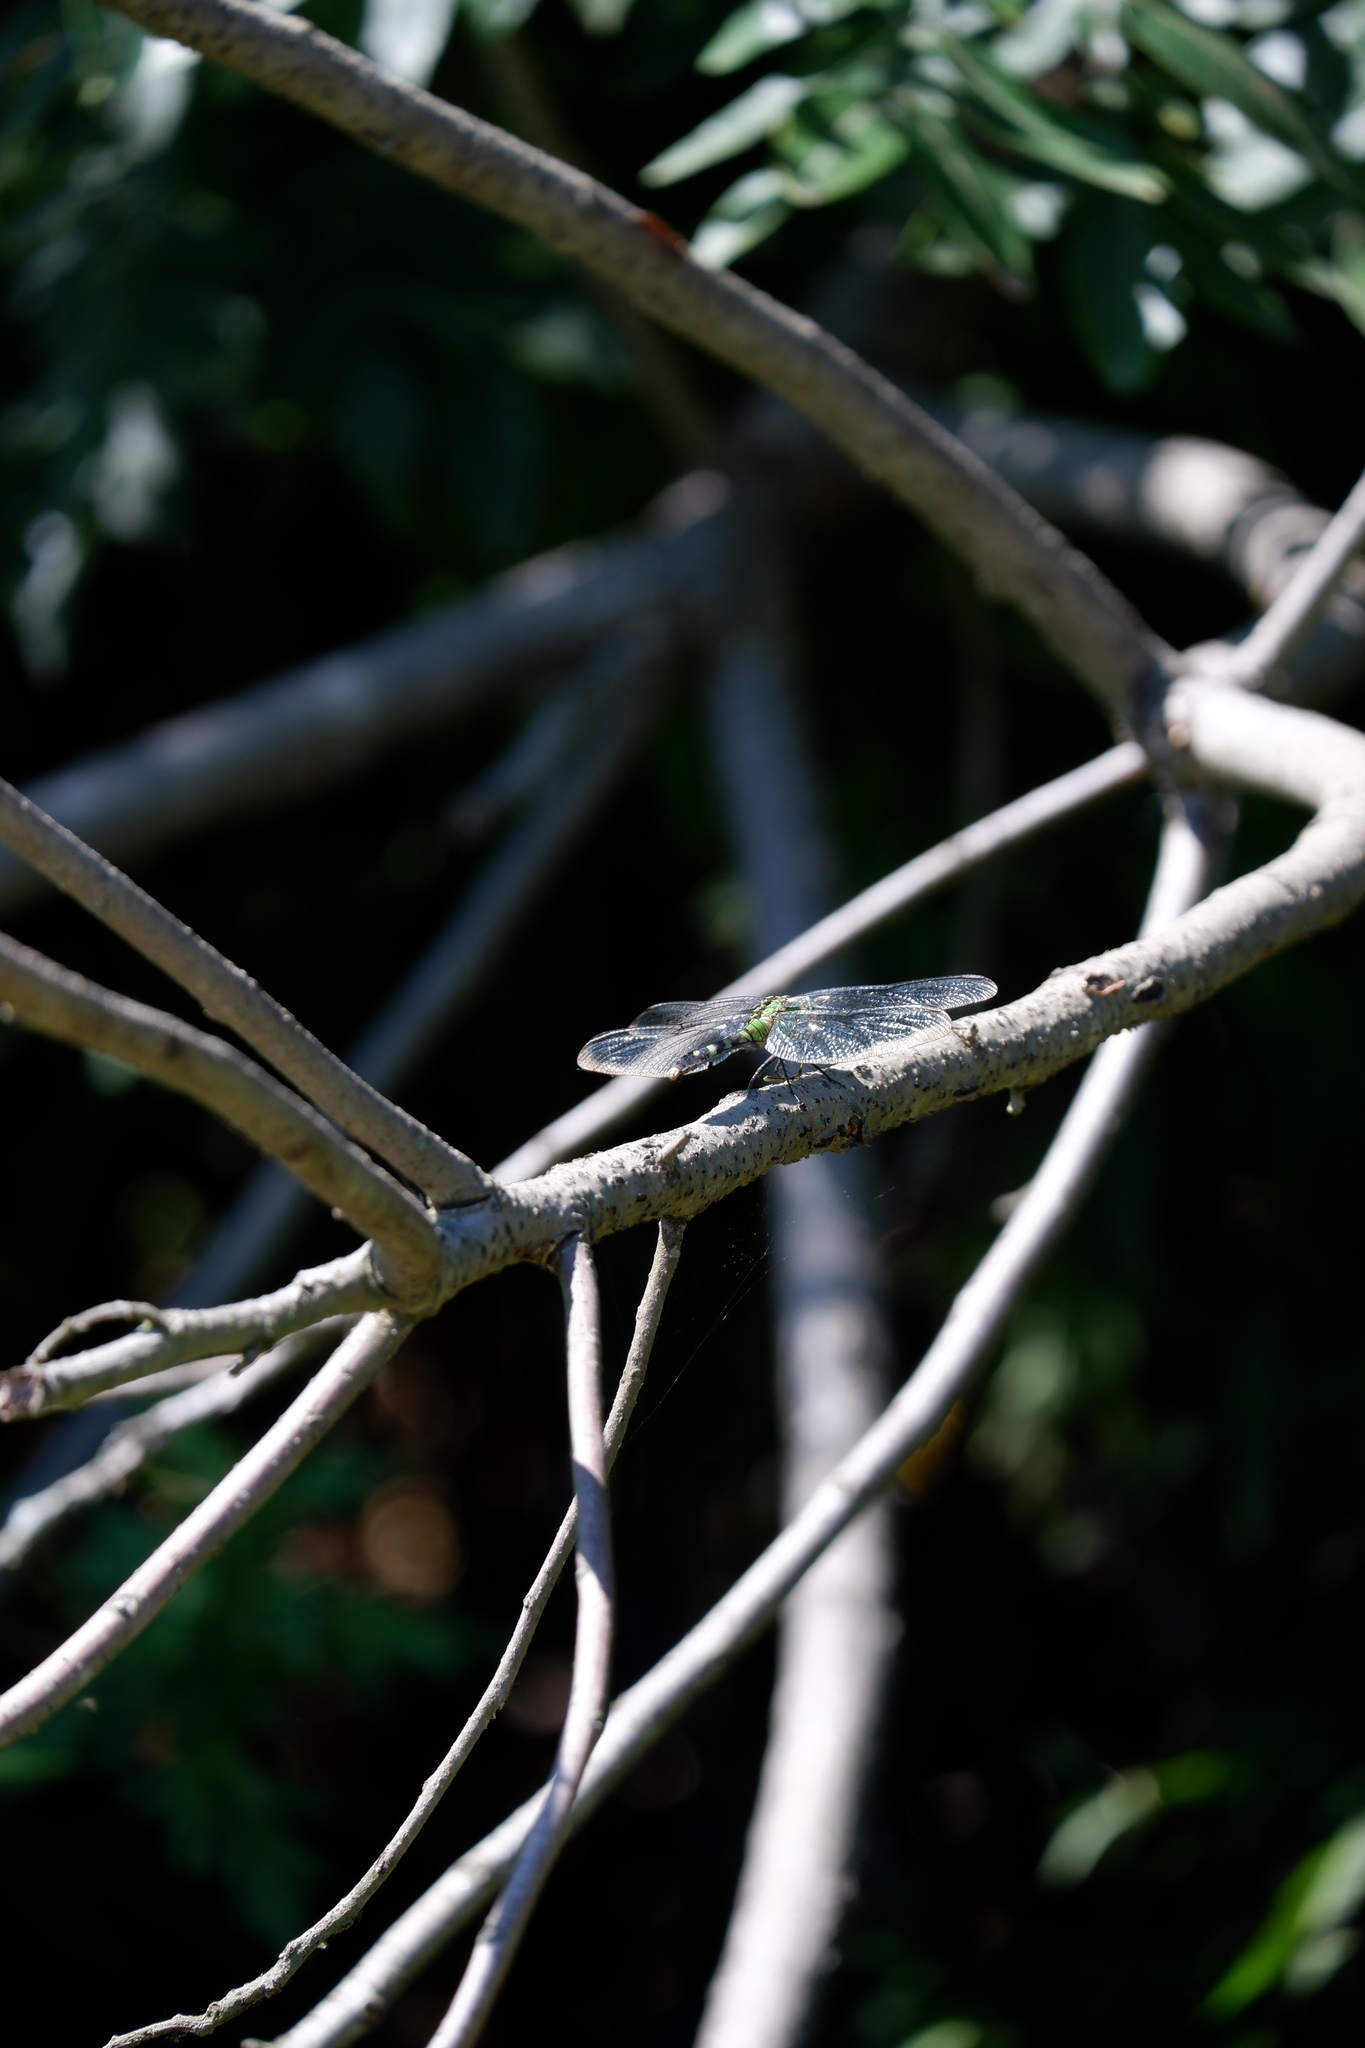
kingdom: Animalia
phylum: Arthropoda
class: Insecta
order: Odonata
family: Libellulidae
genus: Erythemis
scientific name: Erythemis simplicicollis
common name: Eastern pondhawk
